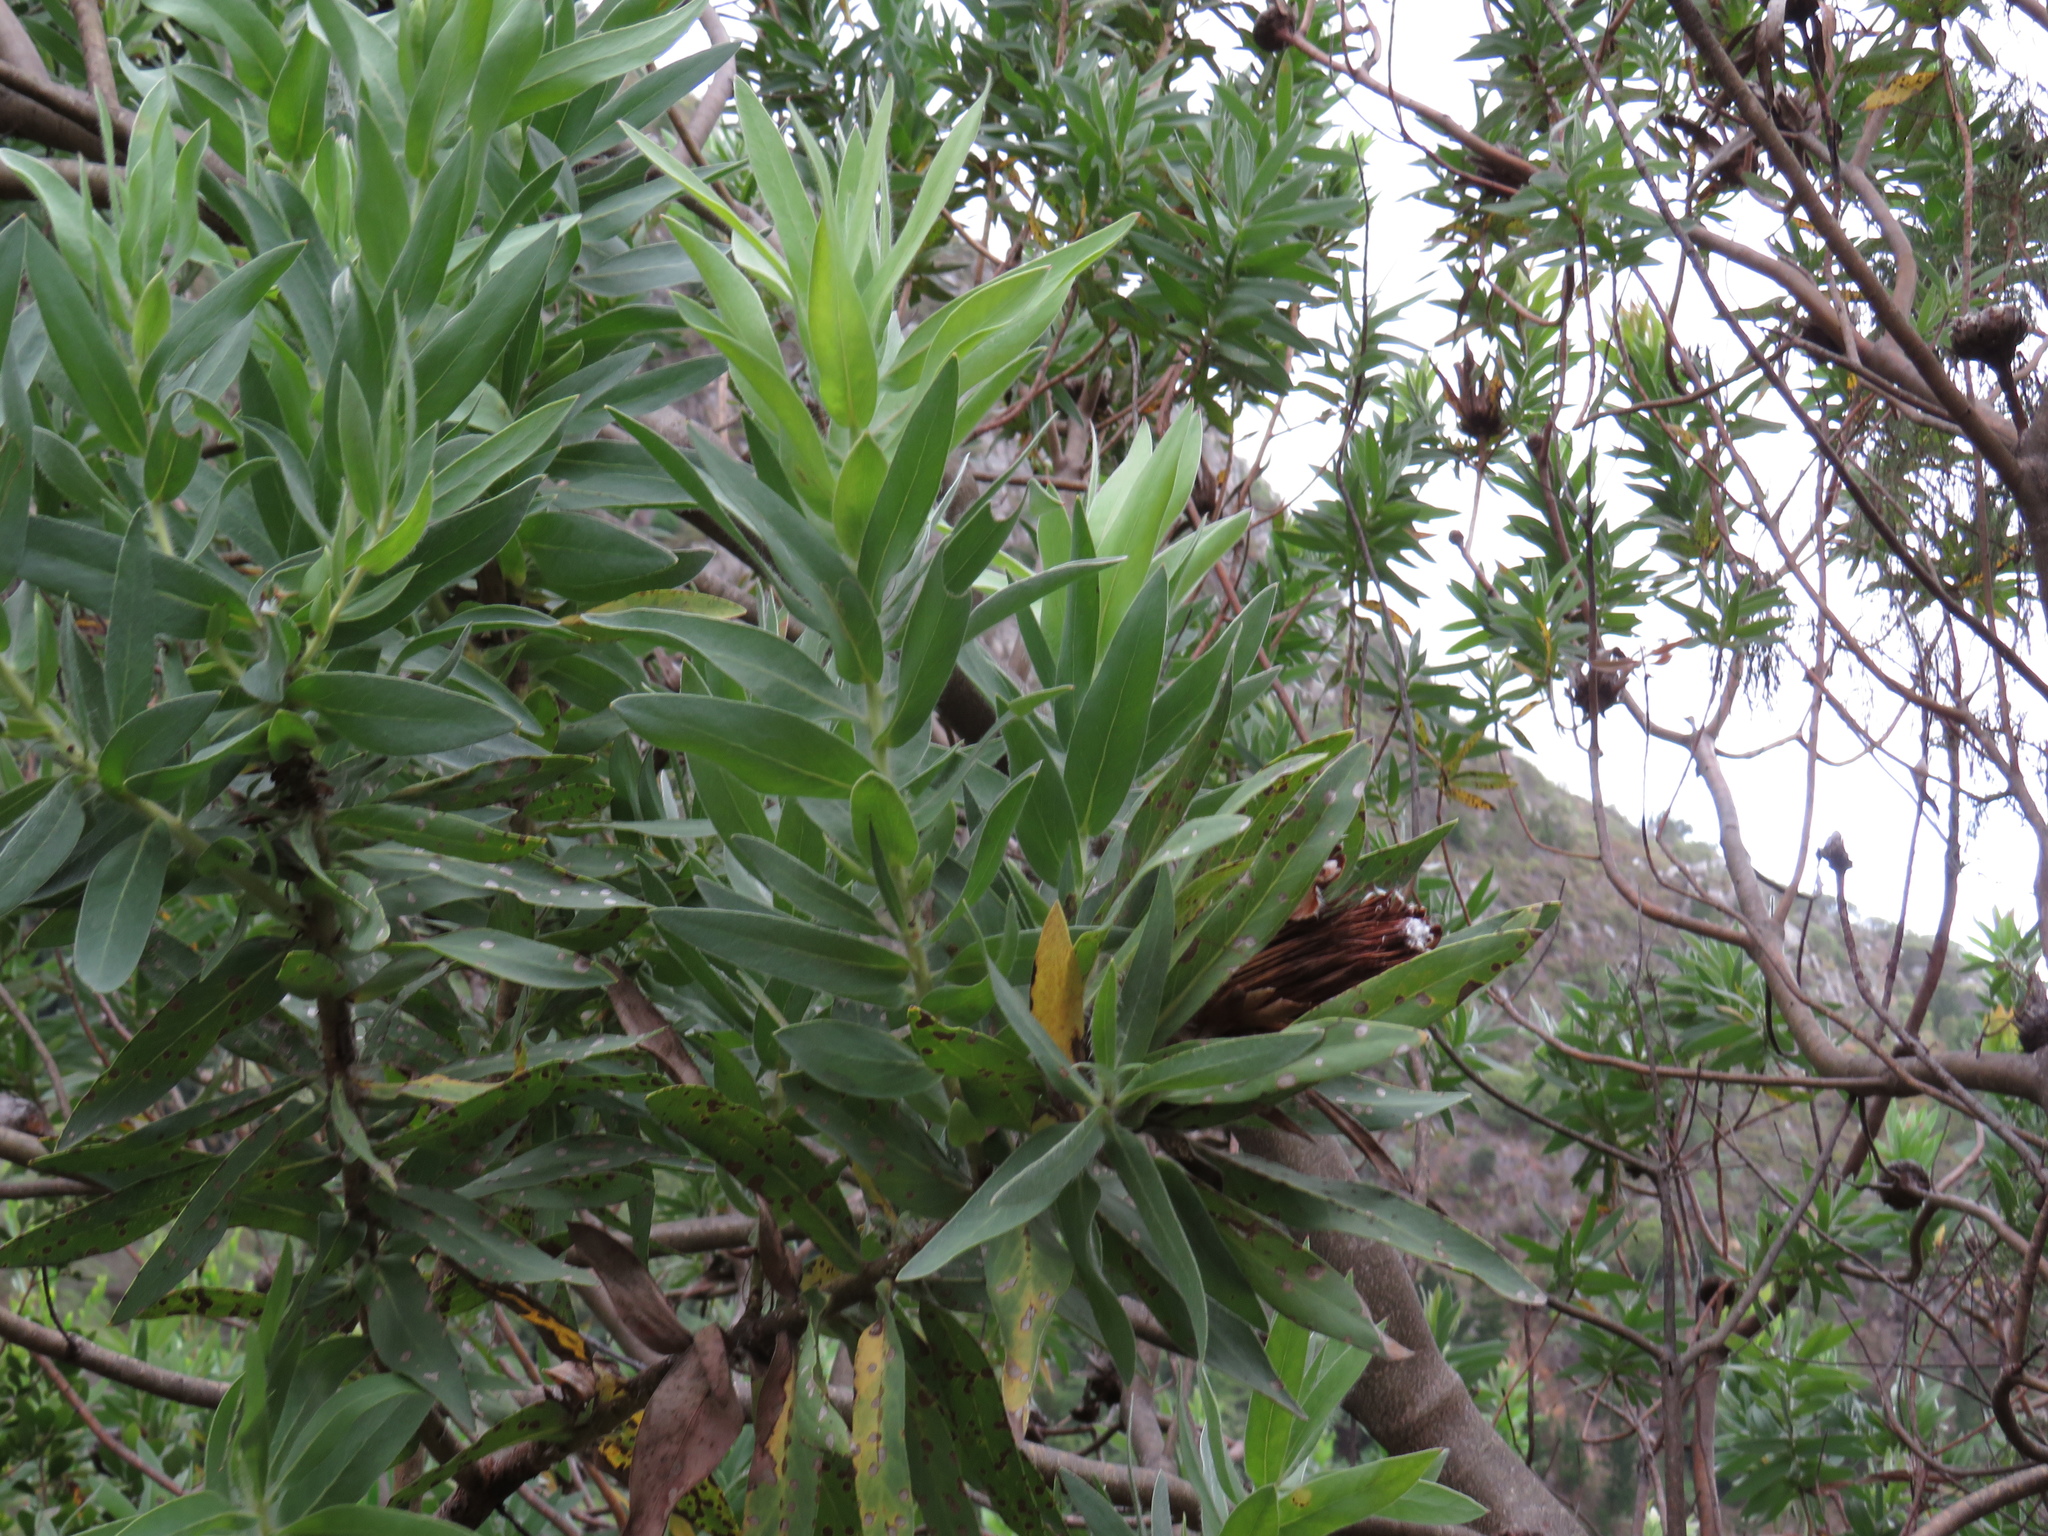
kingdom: Plantae
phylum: Tracheophyta
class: Magnoliopsida
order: Proteales
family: Proteaceae
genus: Protea
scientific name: Protea coronata
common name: Green sugarbush
